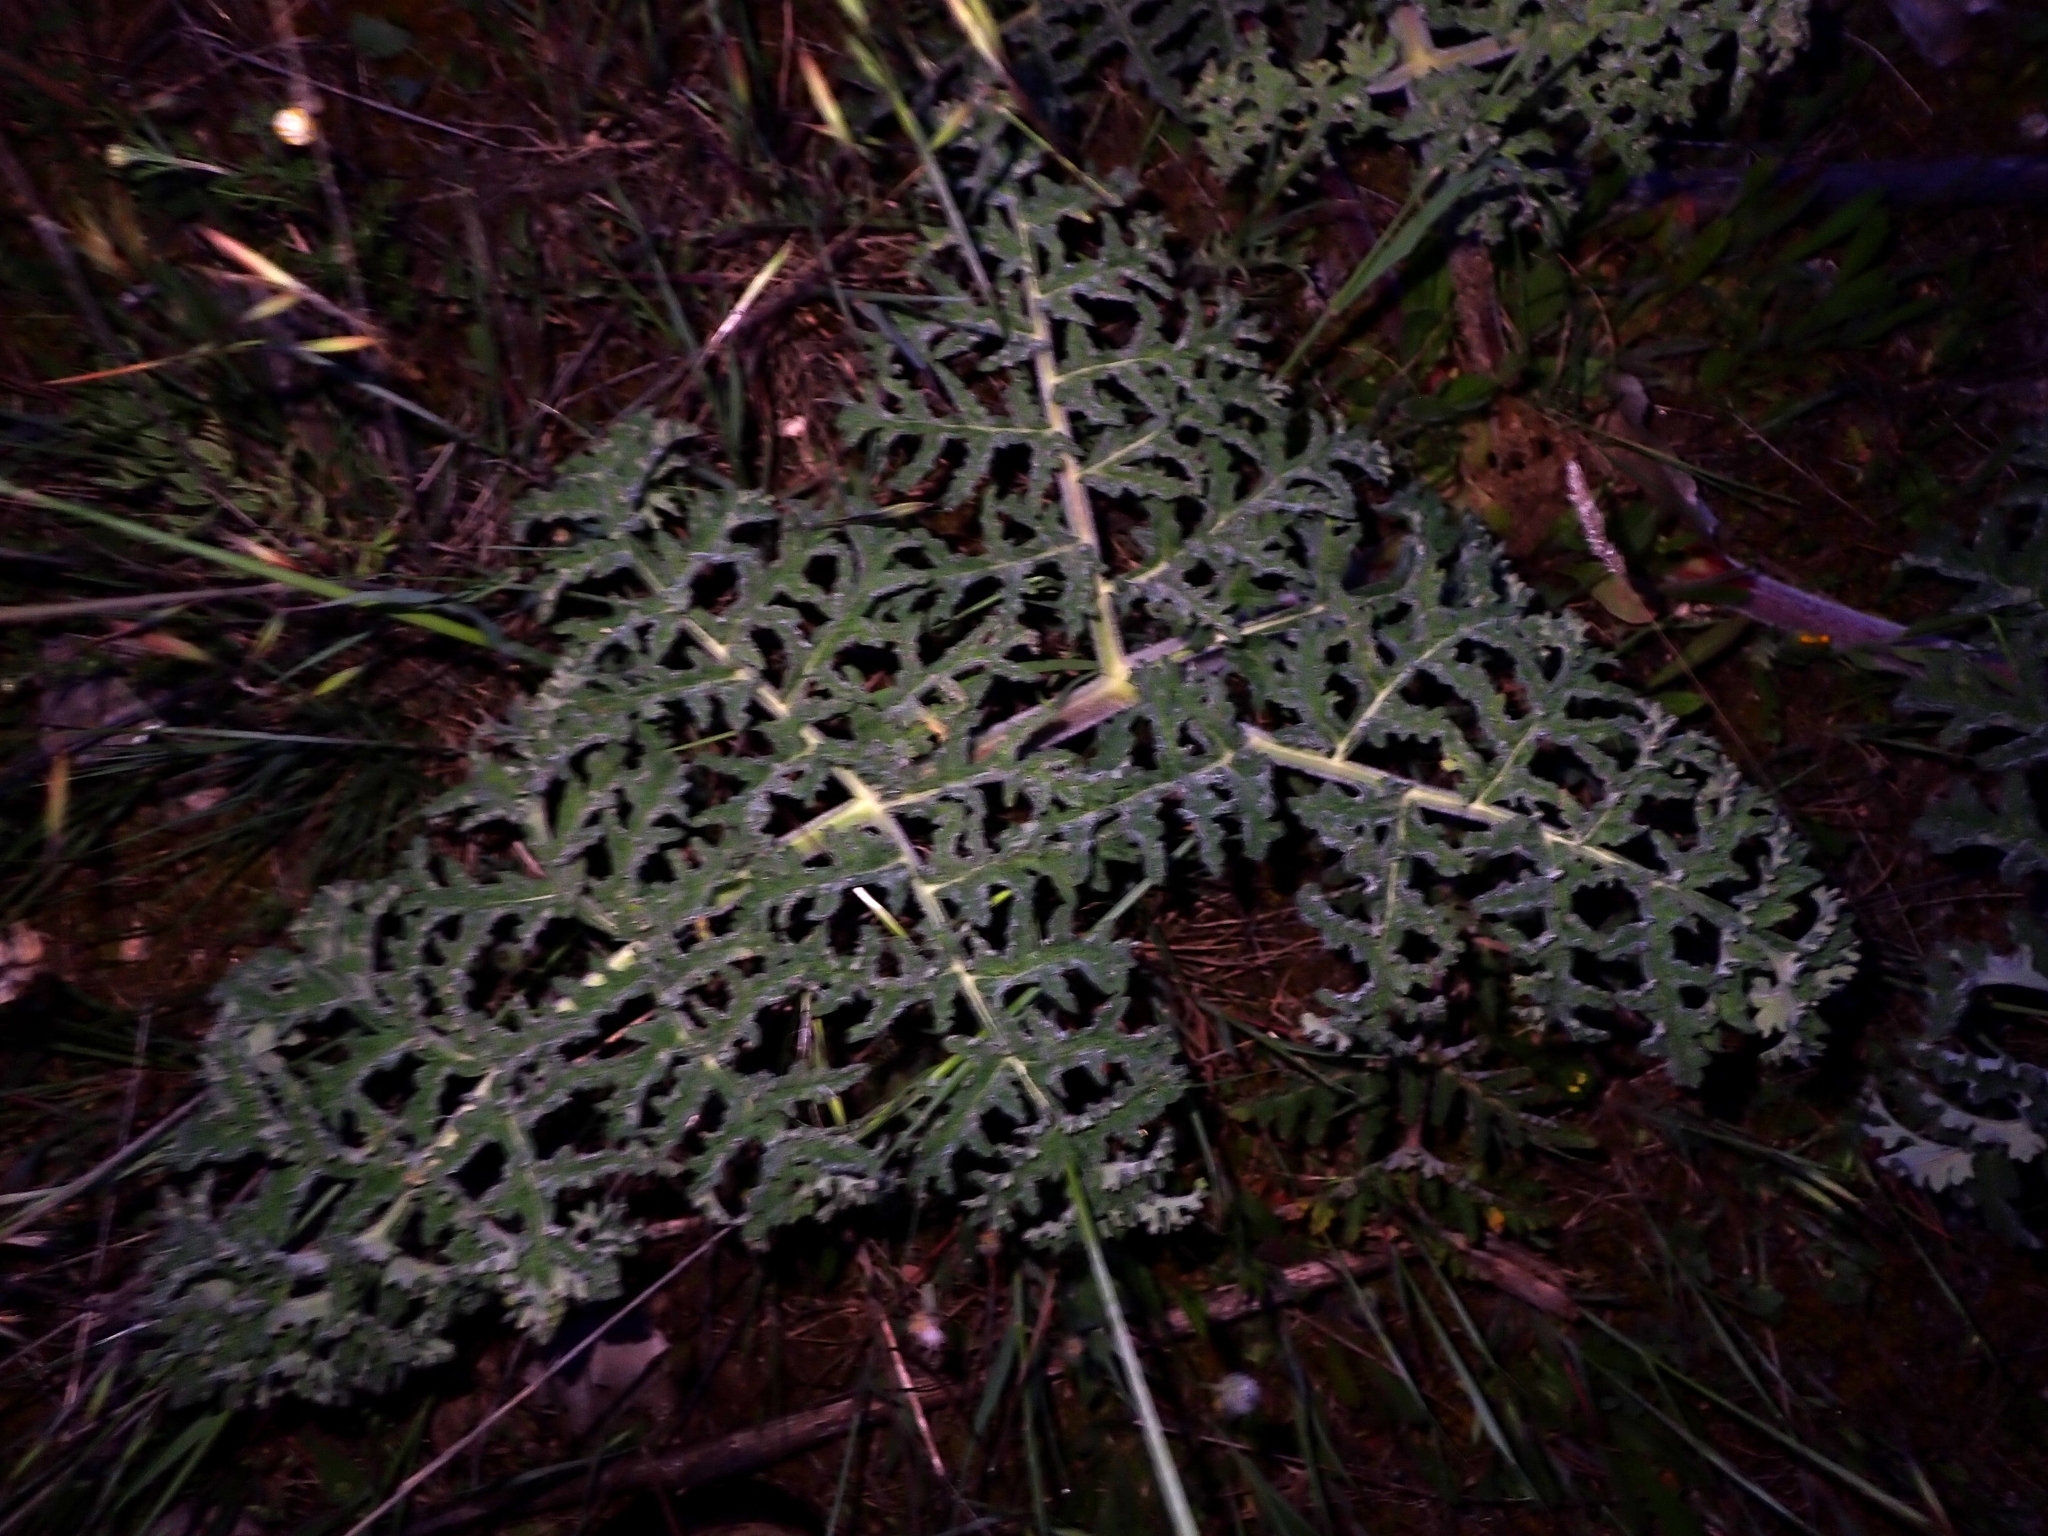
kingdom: Plantae
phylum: Tracheophyta
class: Magnoliopsida
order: Apiales
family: Apiaceae
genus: Thapsia
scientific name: Thapsia villosa
